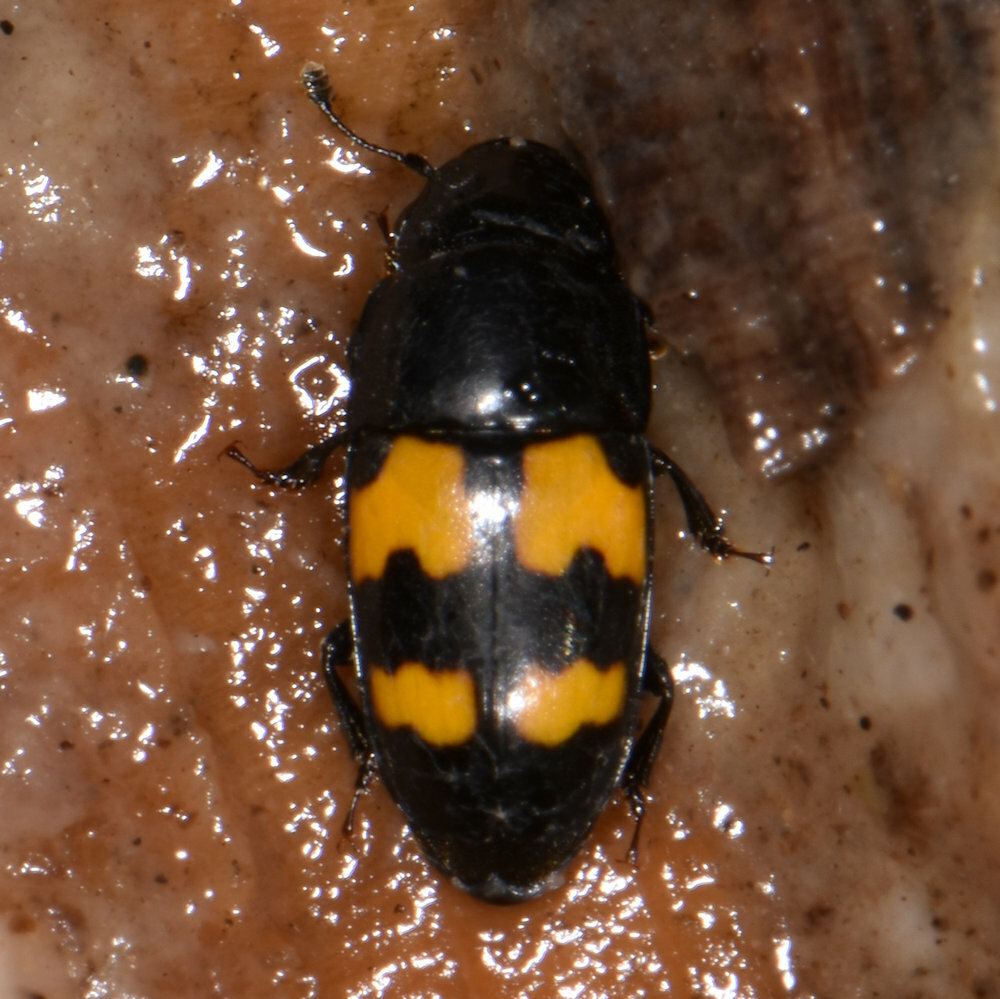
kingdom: Animalia
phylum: Arthropoda
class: Insecta
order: Coleoptera
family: Nitidulidae
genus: Glischrochilus
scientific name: Glischrochilus fasciatus
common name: Picnic beetle
